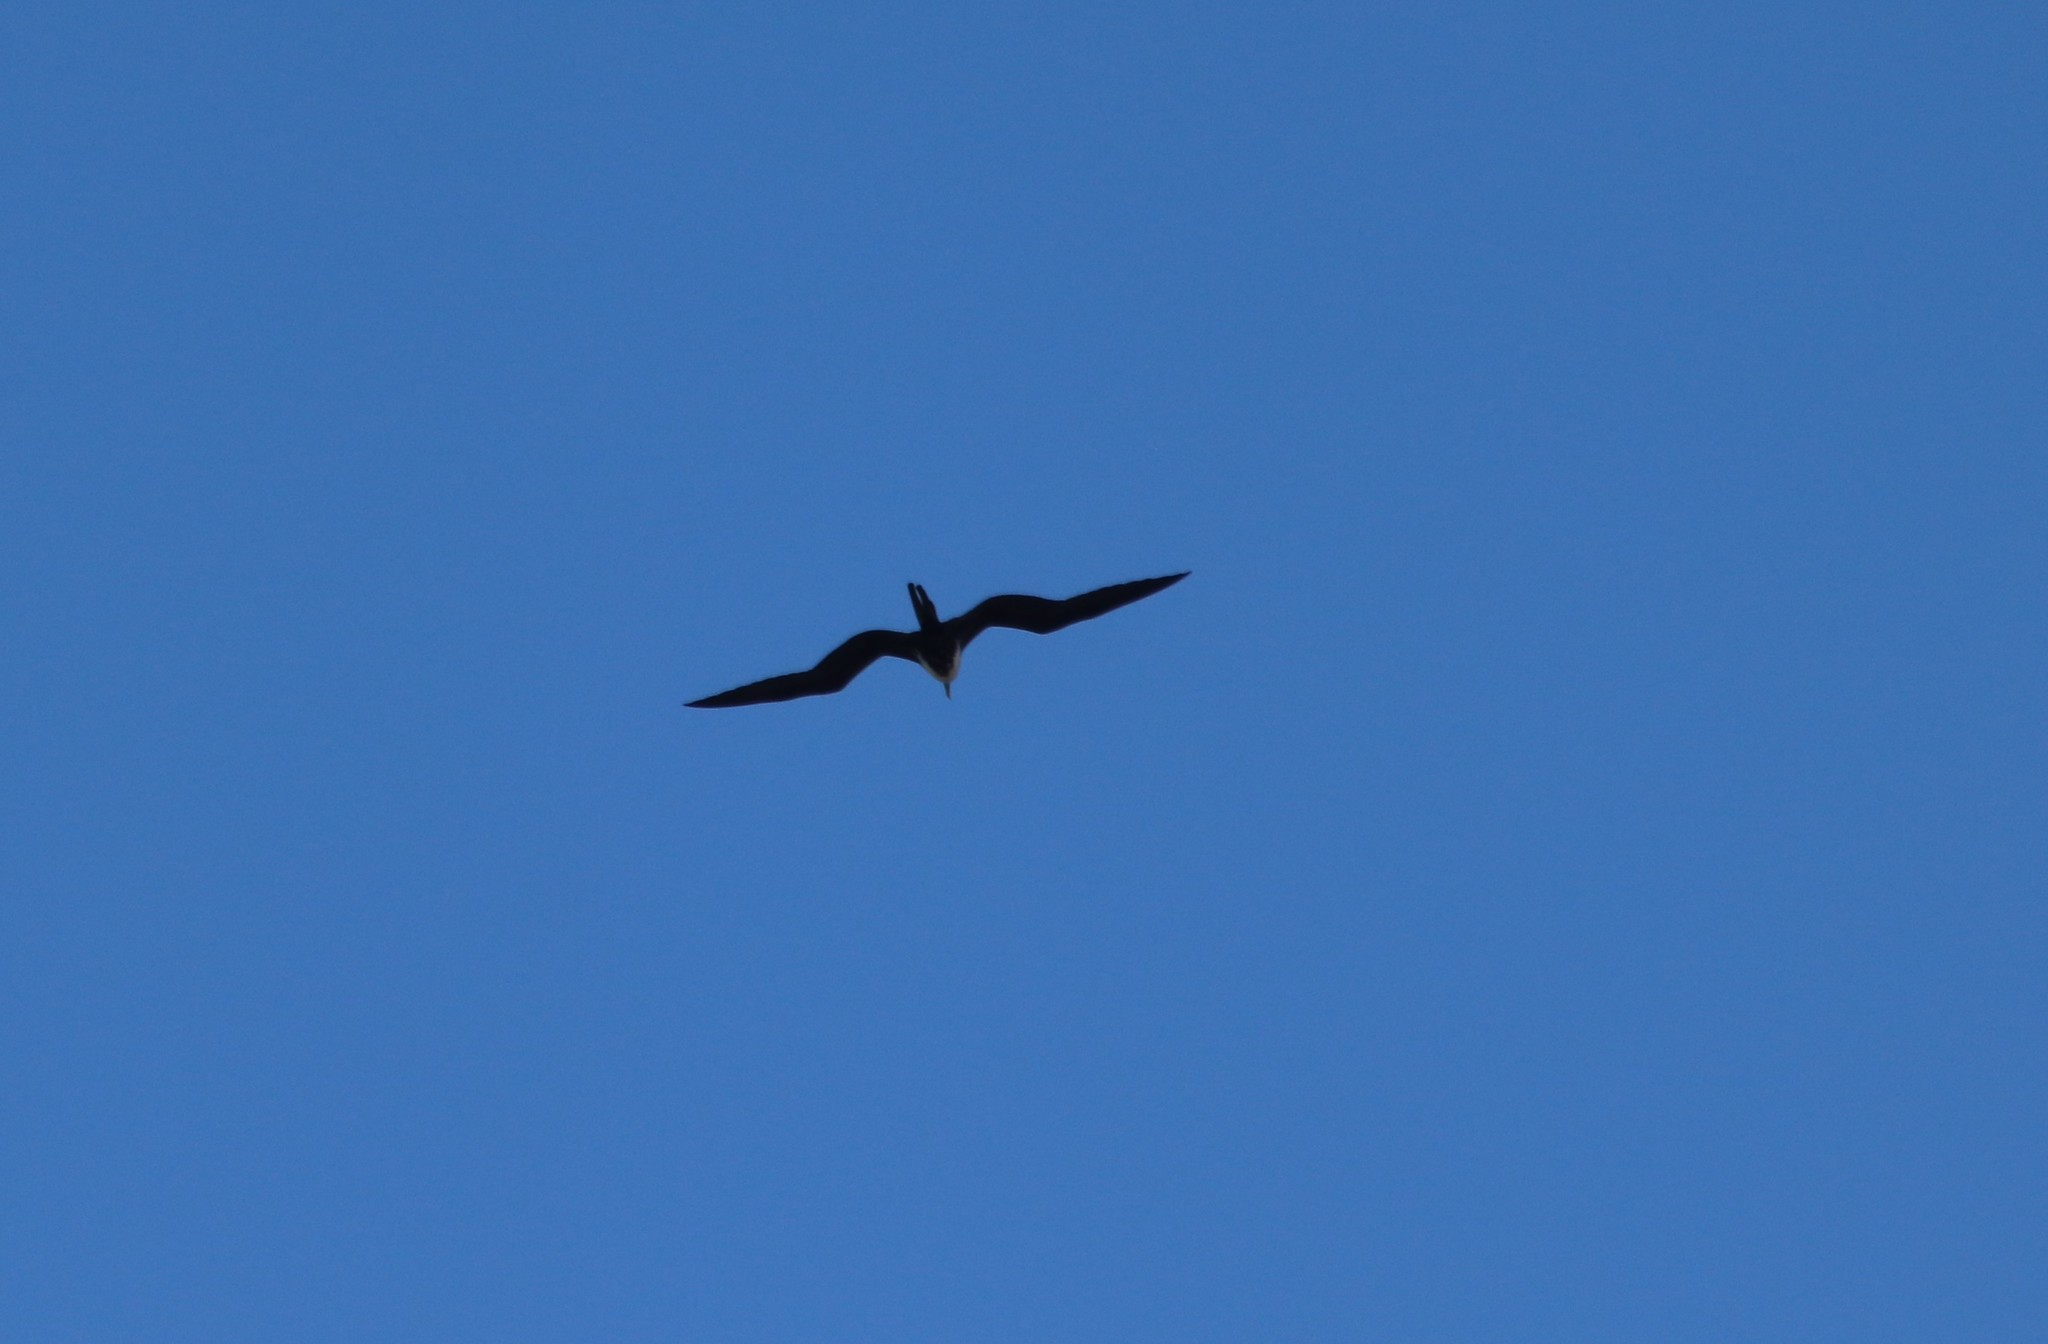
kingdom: Animalia
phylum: Chordata
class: Aves
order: Suliformes
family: Fregatidae
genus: Fregata
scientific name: Fregata magnificens
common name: Magnificent frigatebird
